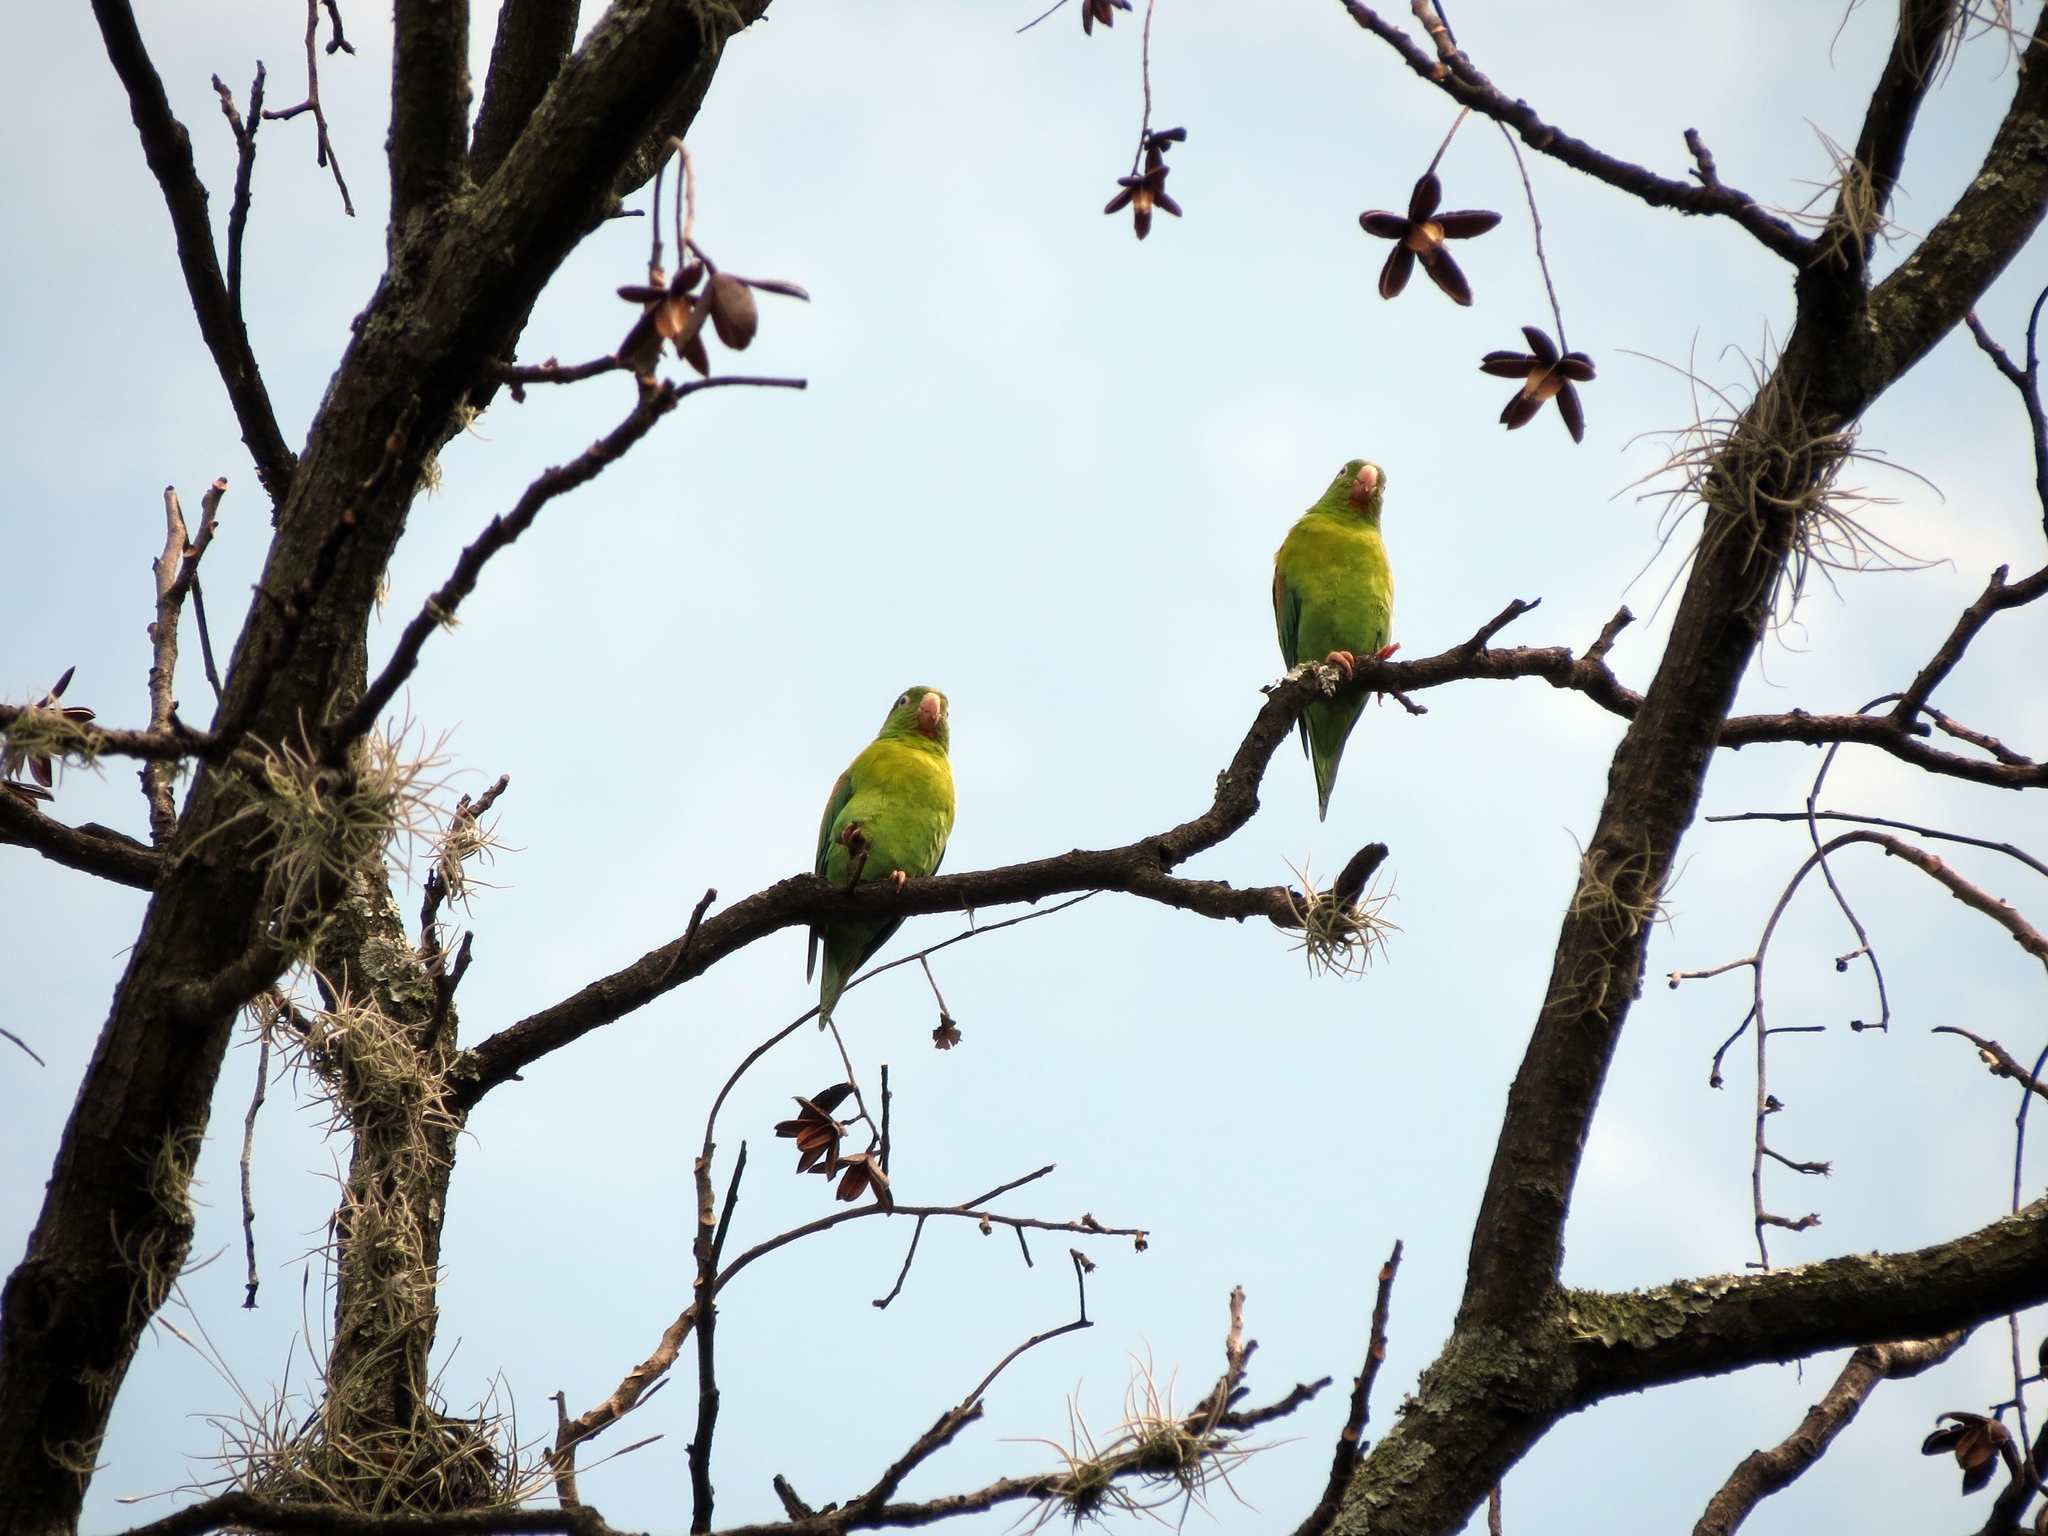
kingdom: Animalia
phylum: Chordata
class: Aves
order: Psittaciformes
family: Psittacidae
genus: Brotogeris
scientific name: Brotogeris jugularis
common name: Orange-chinned parakeet
